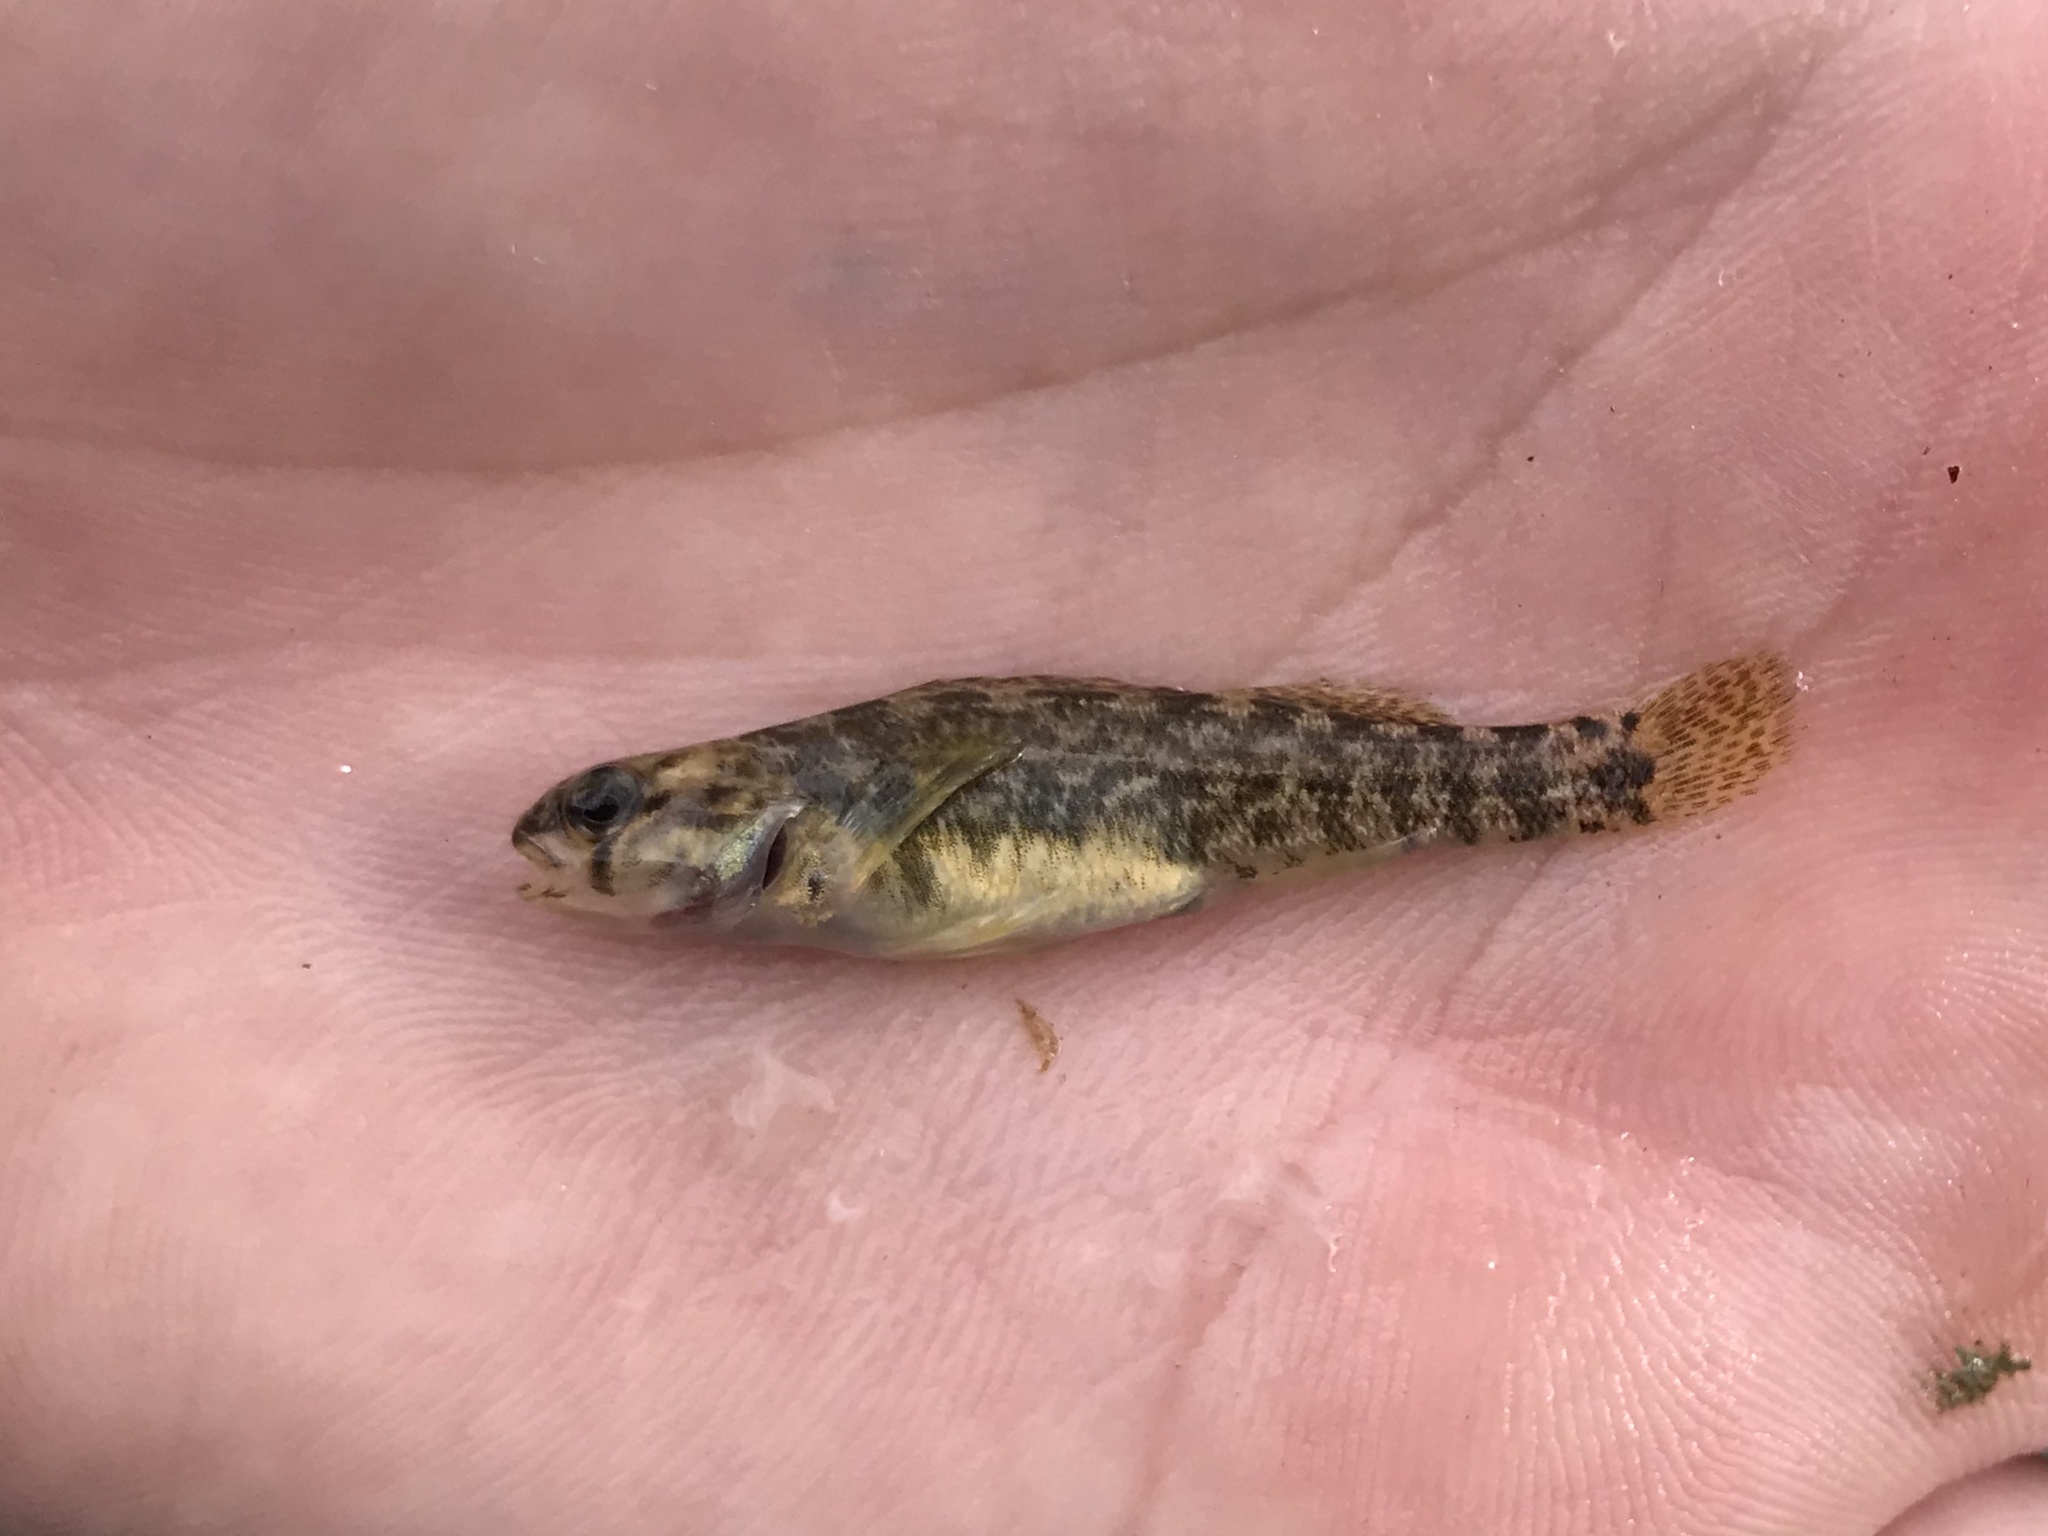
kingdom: Animalia
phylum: Chordata
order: Perciformes
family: Percidae
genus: Etheostoma
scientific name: Etheostoma lepidum
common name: Greenthroat darter
